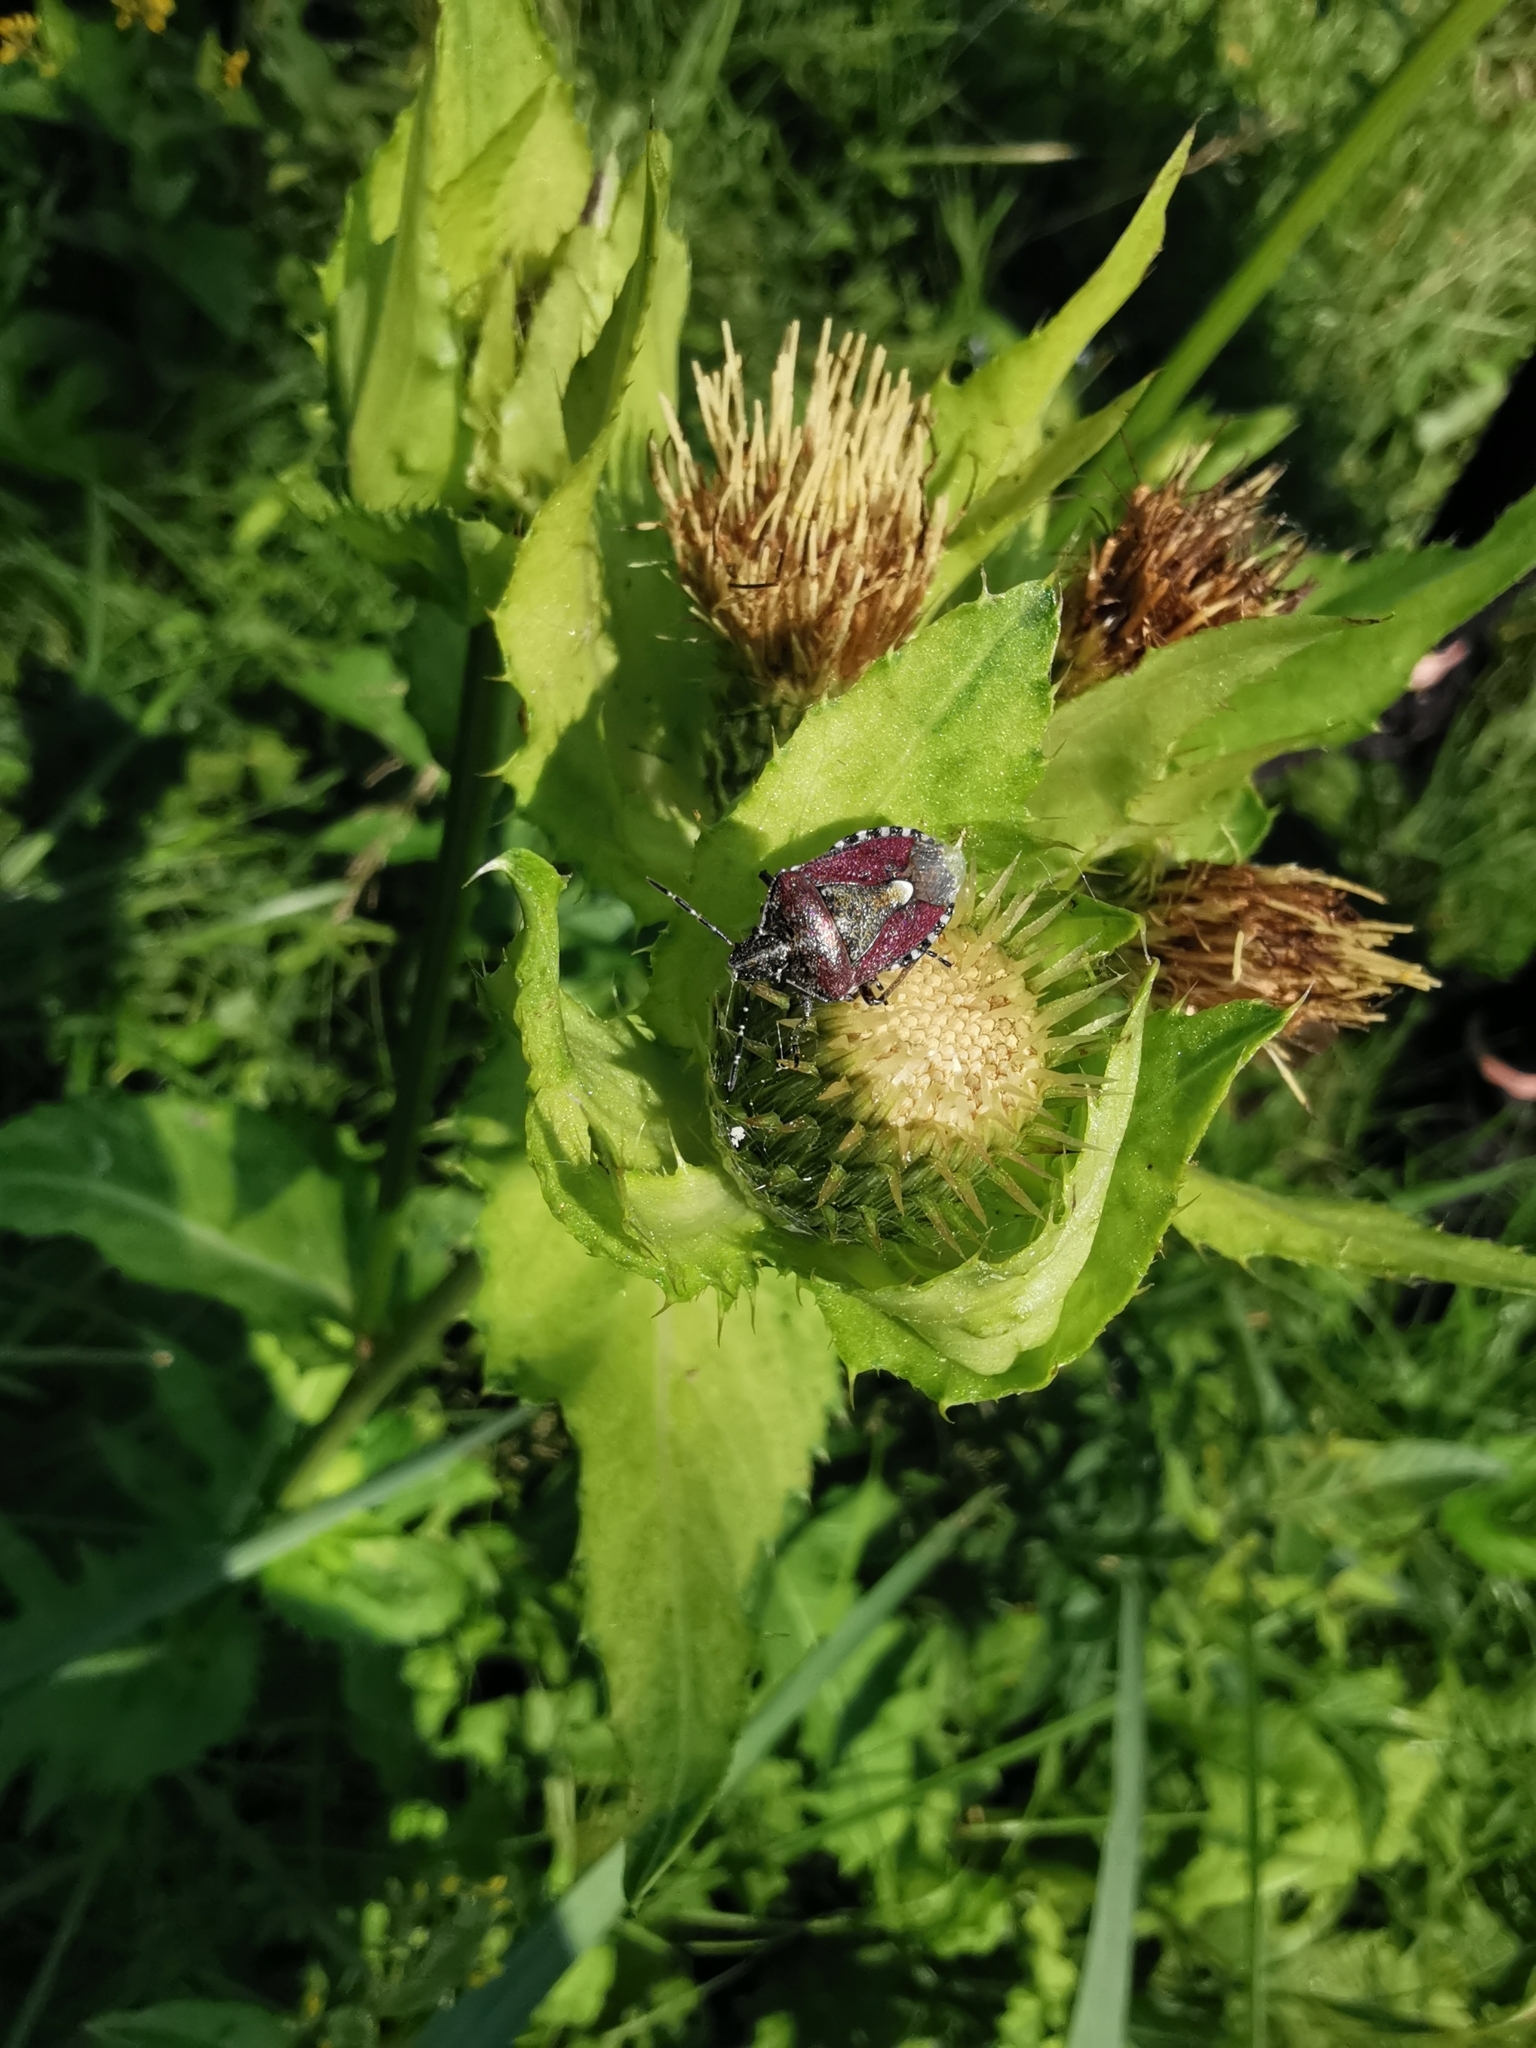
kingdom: Animalia
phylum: Arthropoda
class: Insecta
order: Hemiptera
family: Pentatomidae
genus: Dolycoris
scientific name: Dolycoris baccarum
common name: Sloe bug
